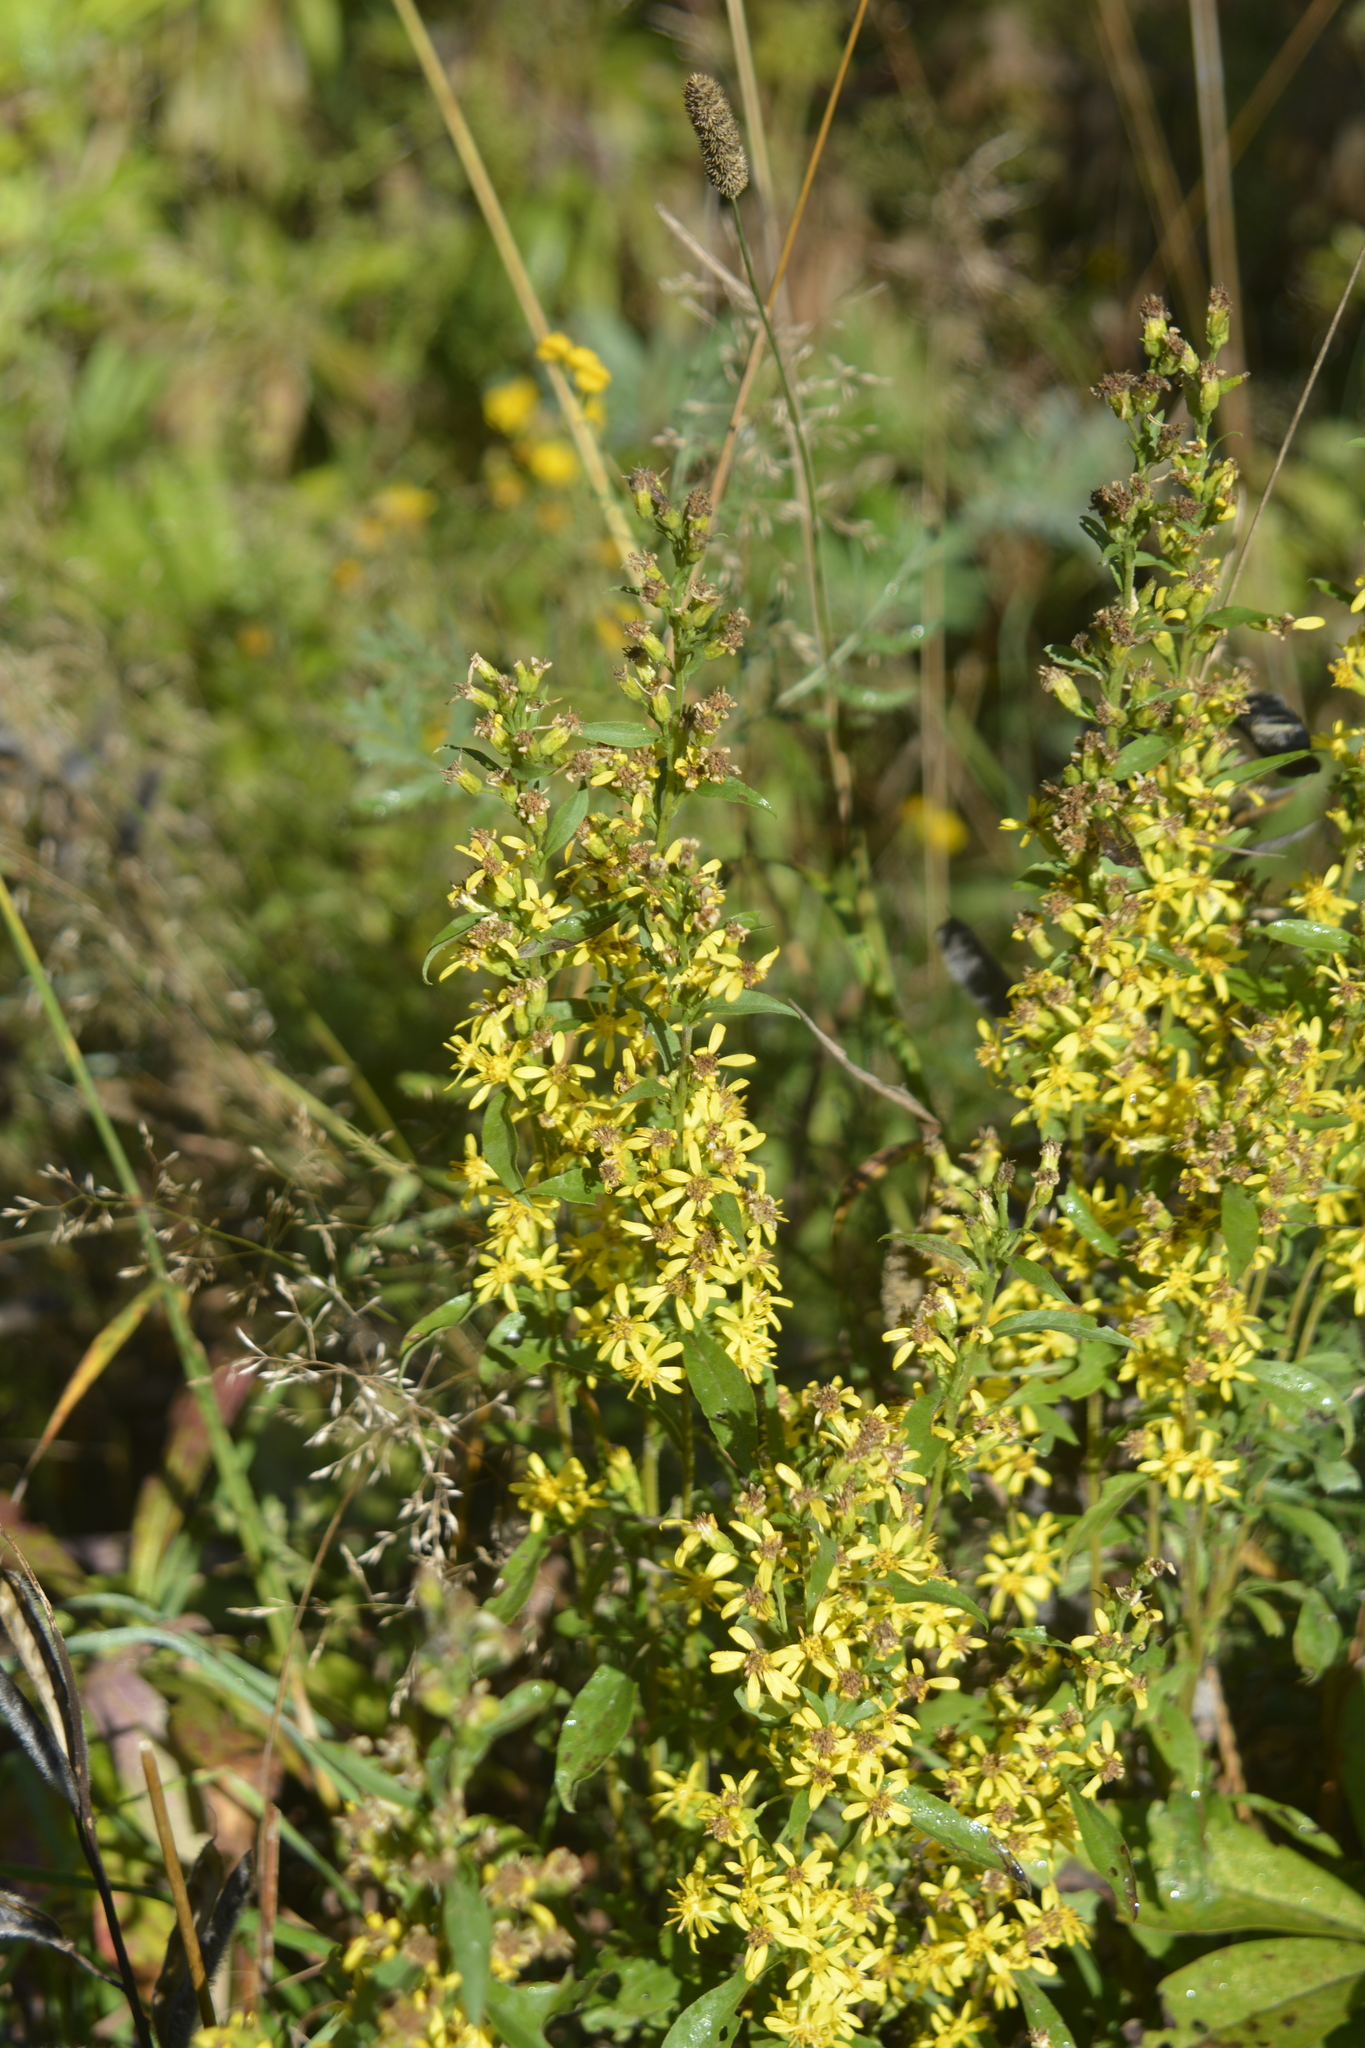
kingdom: Plantae
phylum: Tracheophyta
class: Magnoliopsida
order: Asterales
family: Asteraceae
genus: Solidago
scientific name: Solidago virgaurea
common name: Goldenrod
